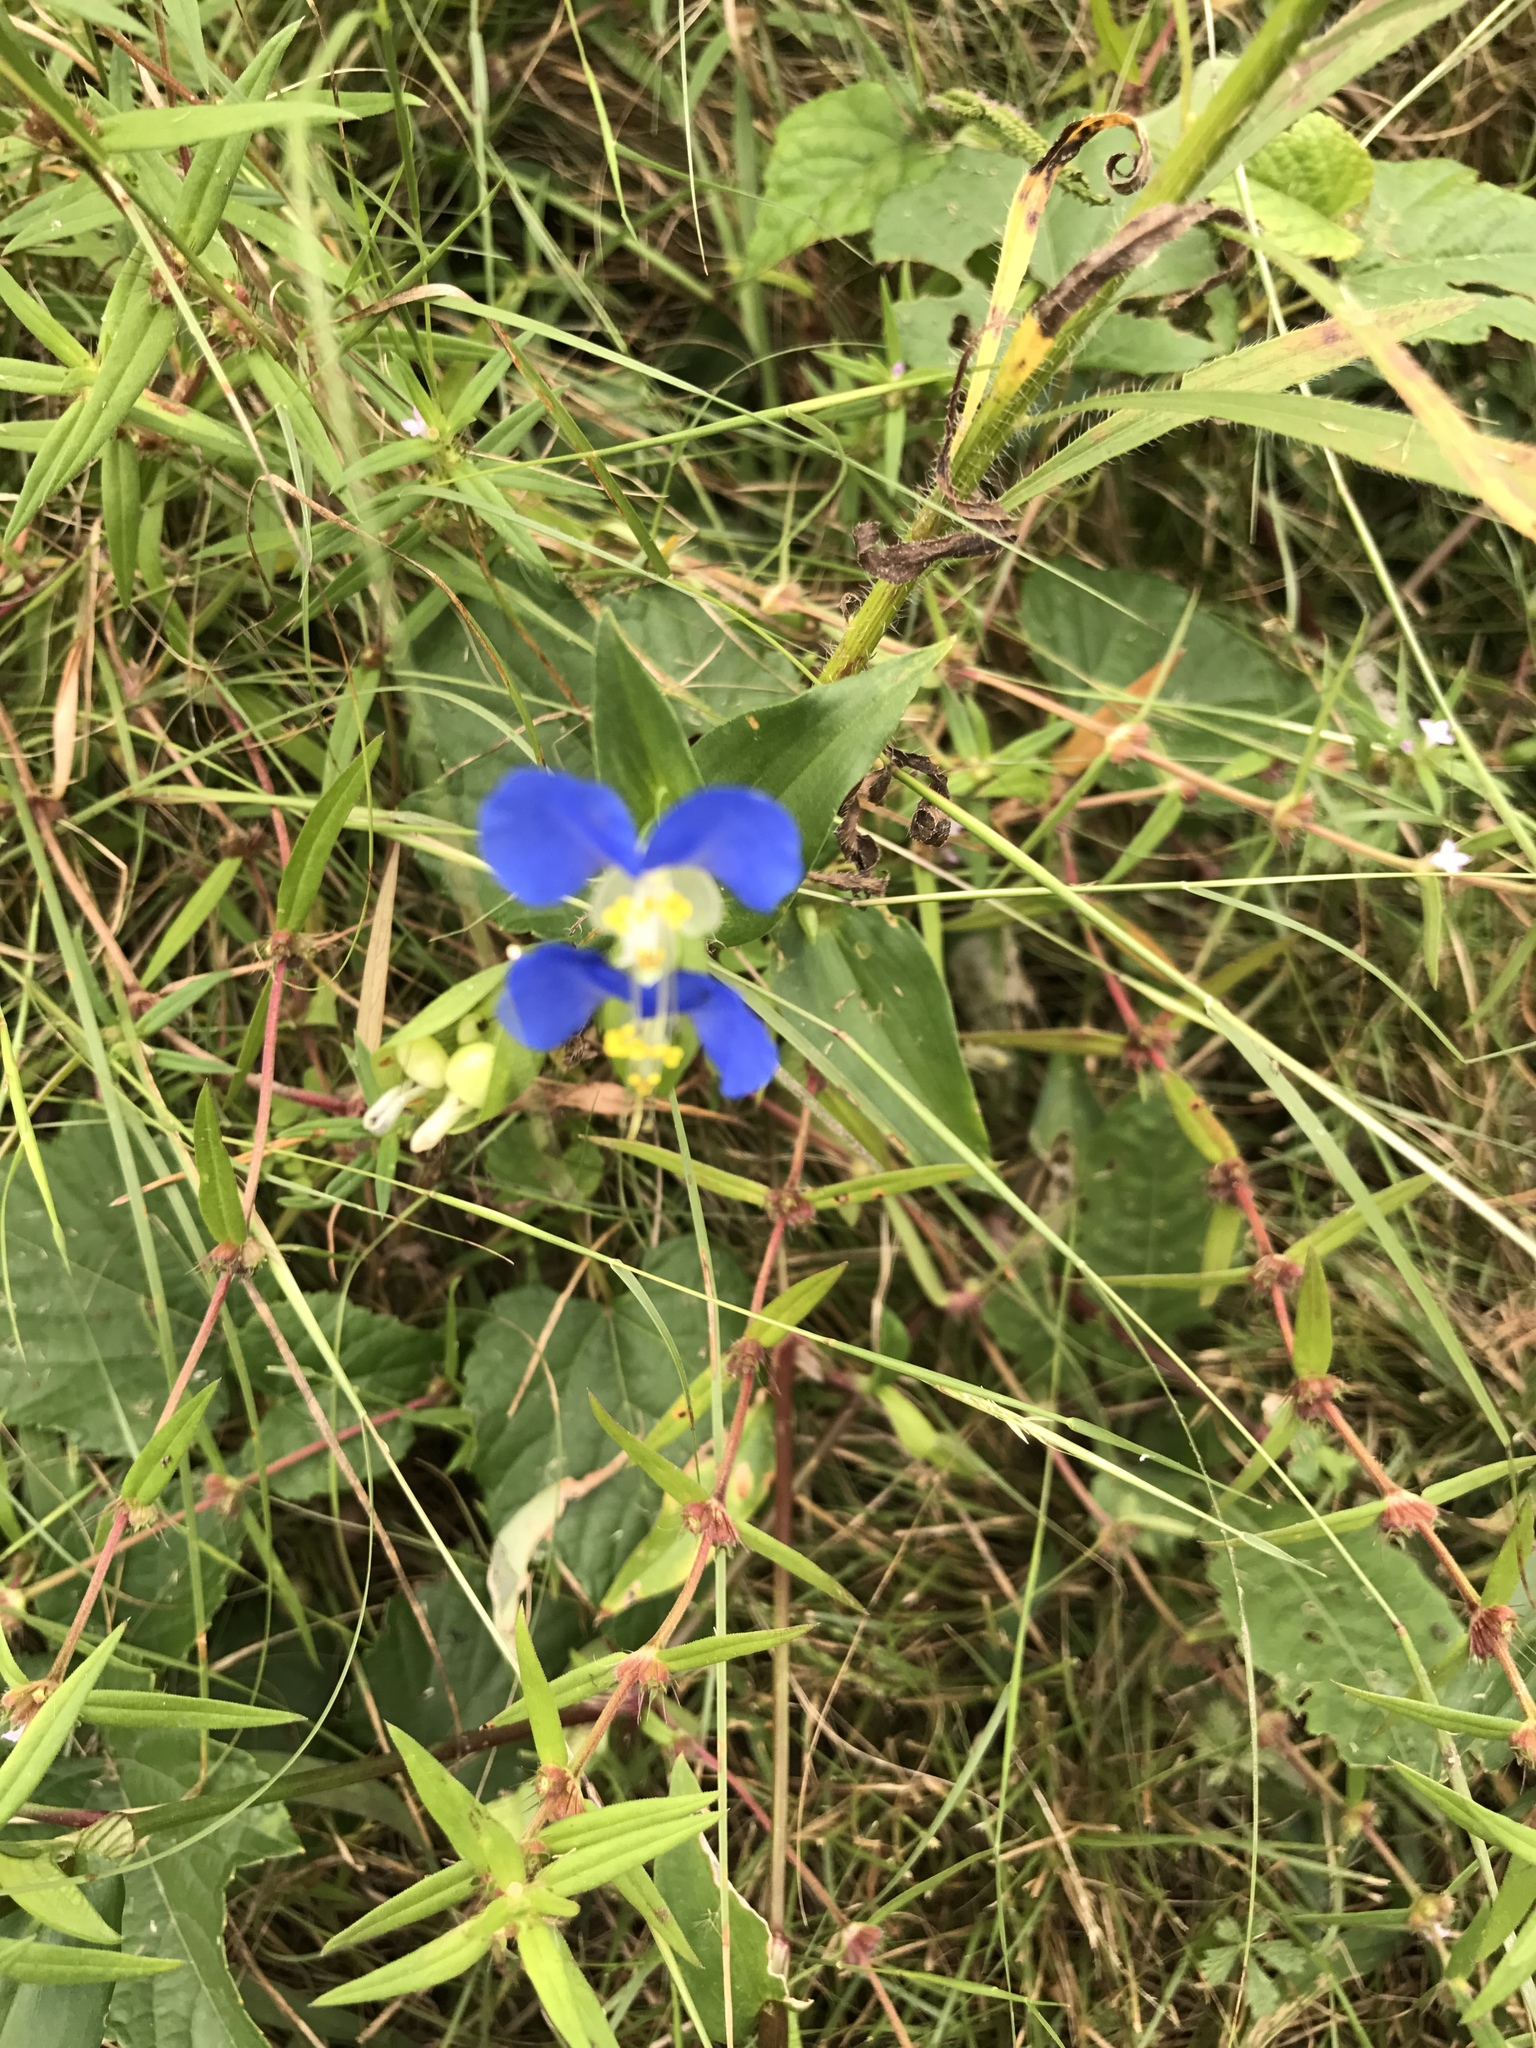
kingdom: Plantae
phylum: Tracheophyta
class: Liliopsida
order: Commelinales
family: Commelinaceae
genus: Commelina
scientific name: Commelina communis
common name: Asiatic dayflower
